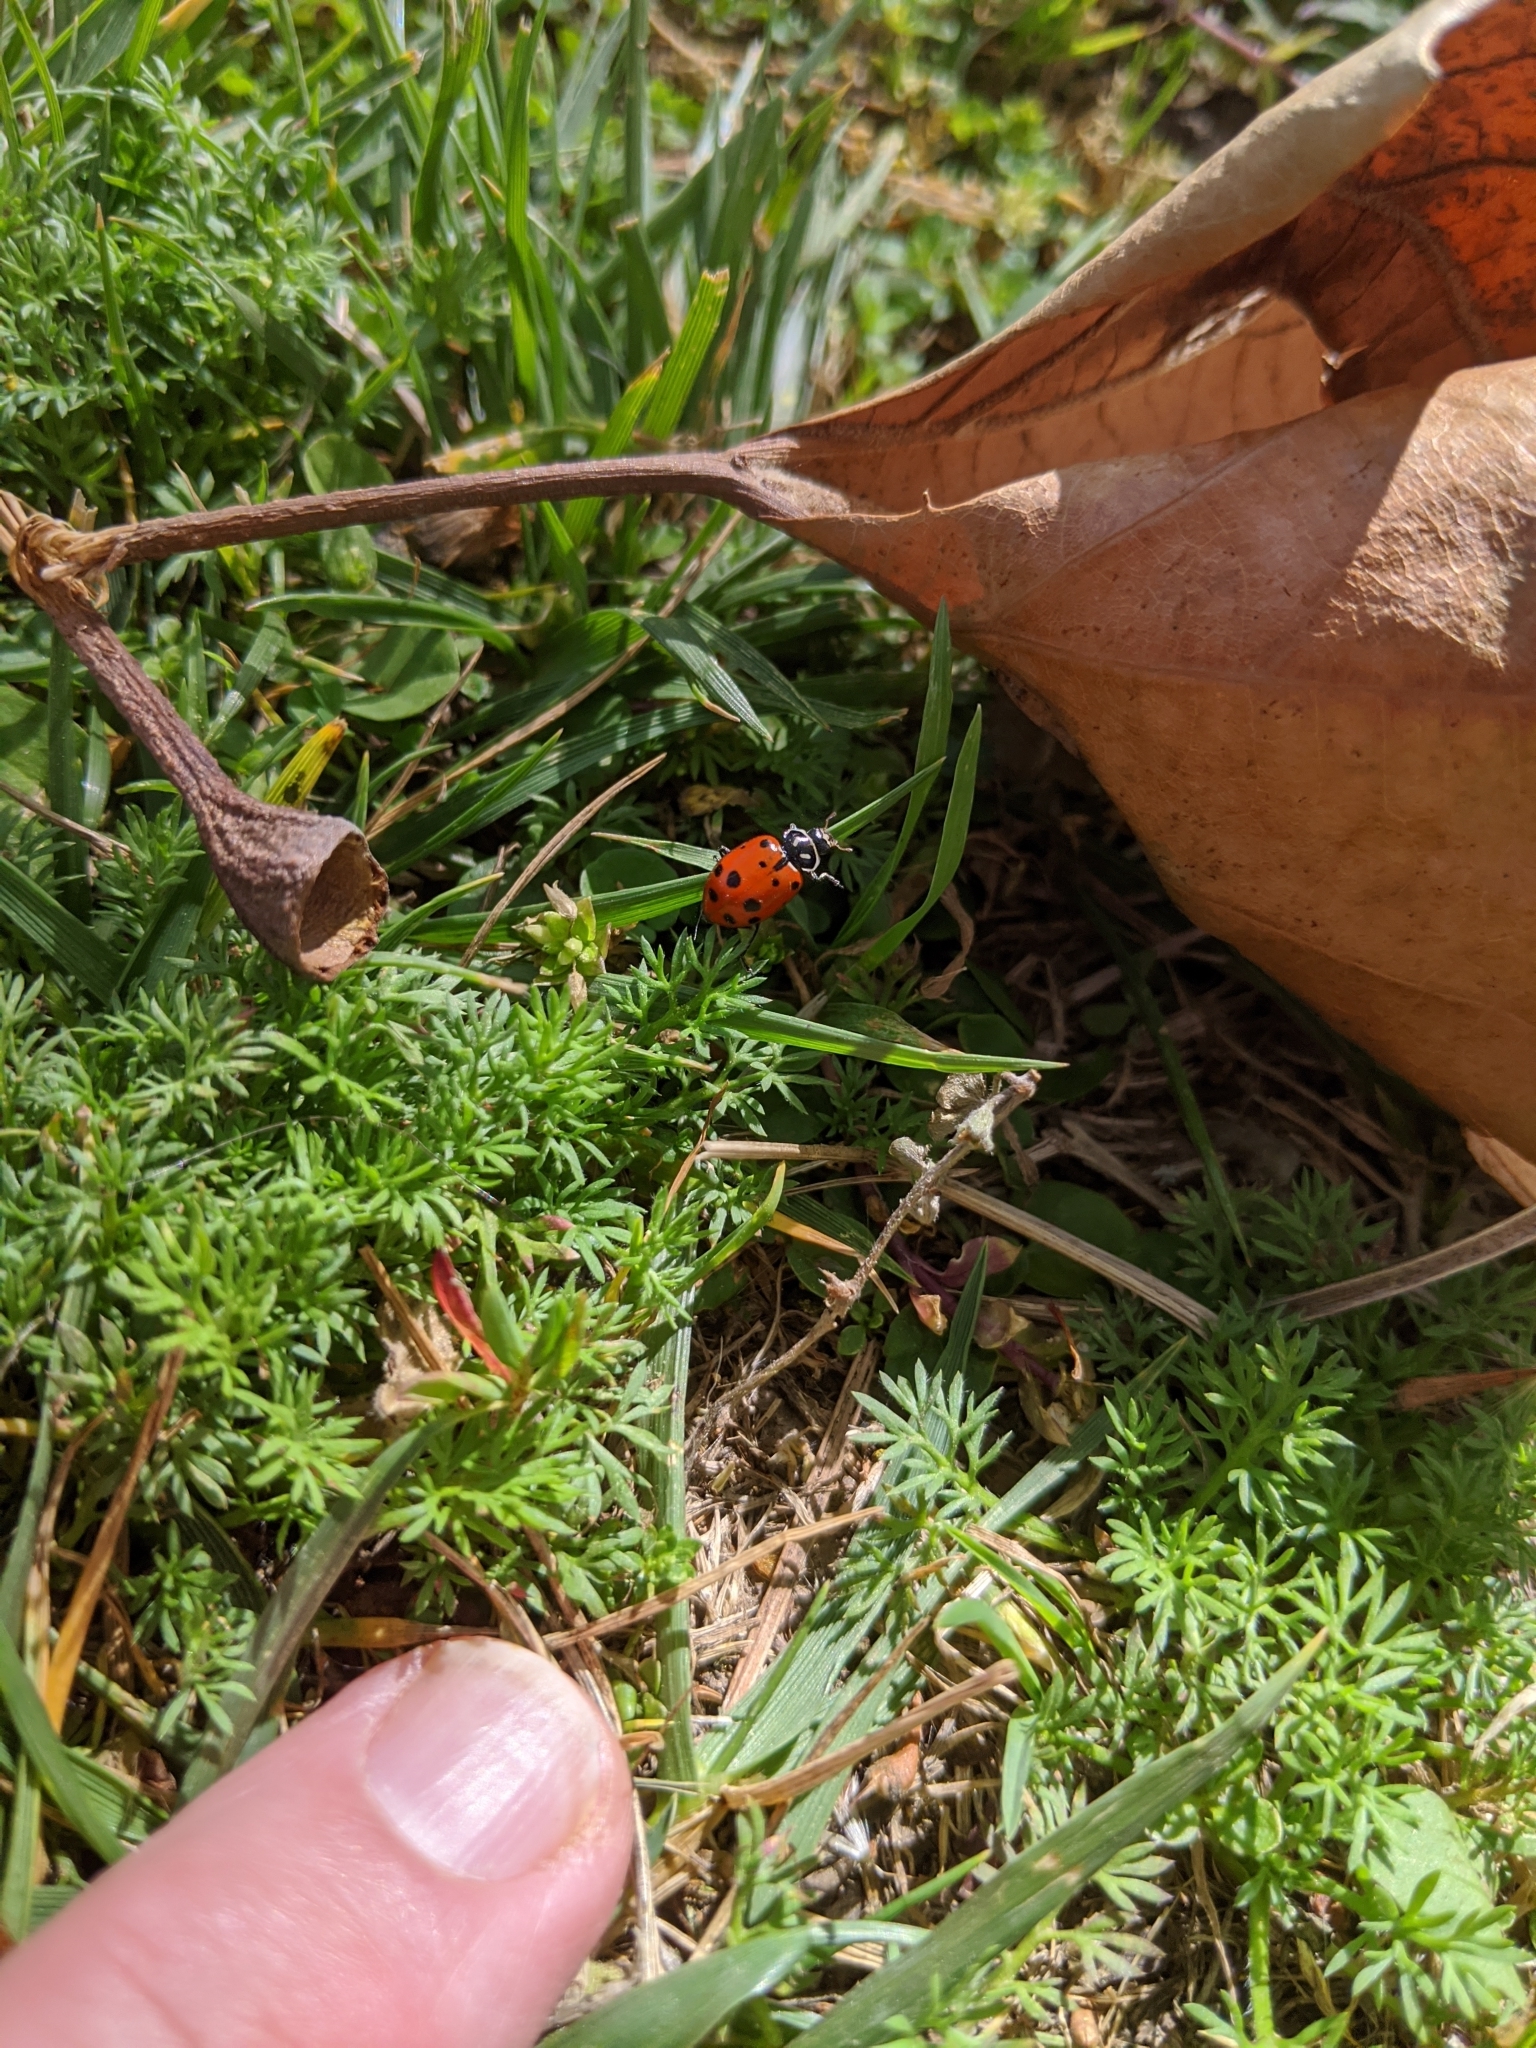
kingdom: Animalia
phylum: Arthropoda
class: Insecta
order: Coleoptera
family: Coccinellidae
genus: Hippodamia
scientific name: Hippodamia convergens
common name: Convergent lady beetle
